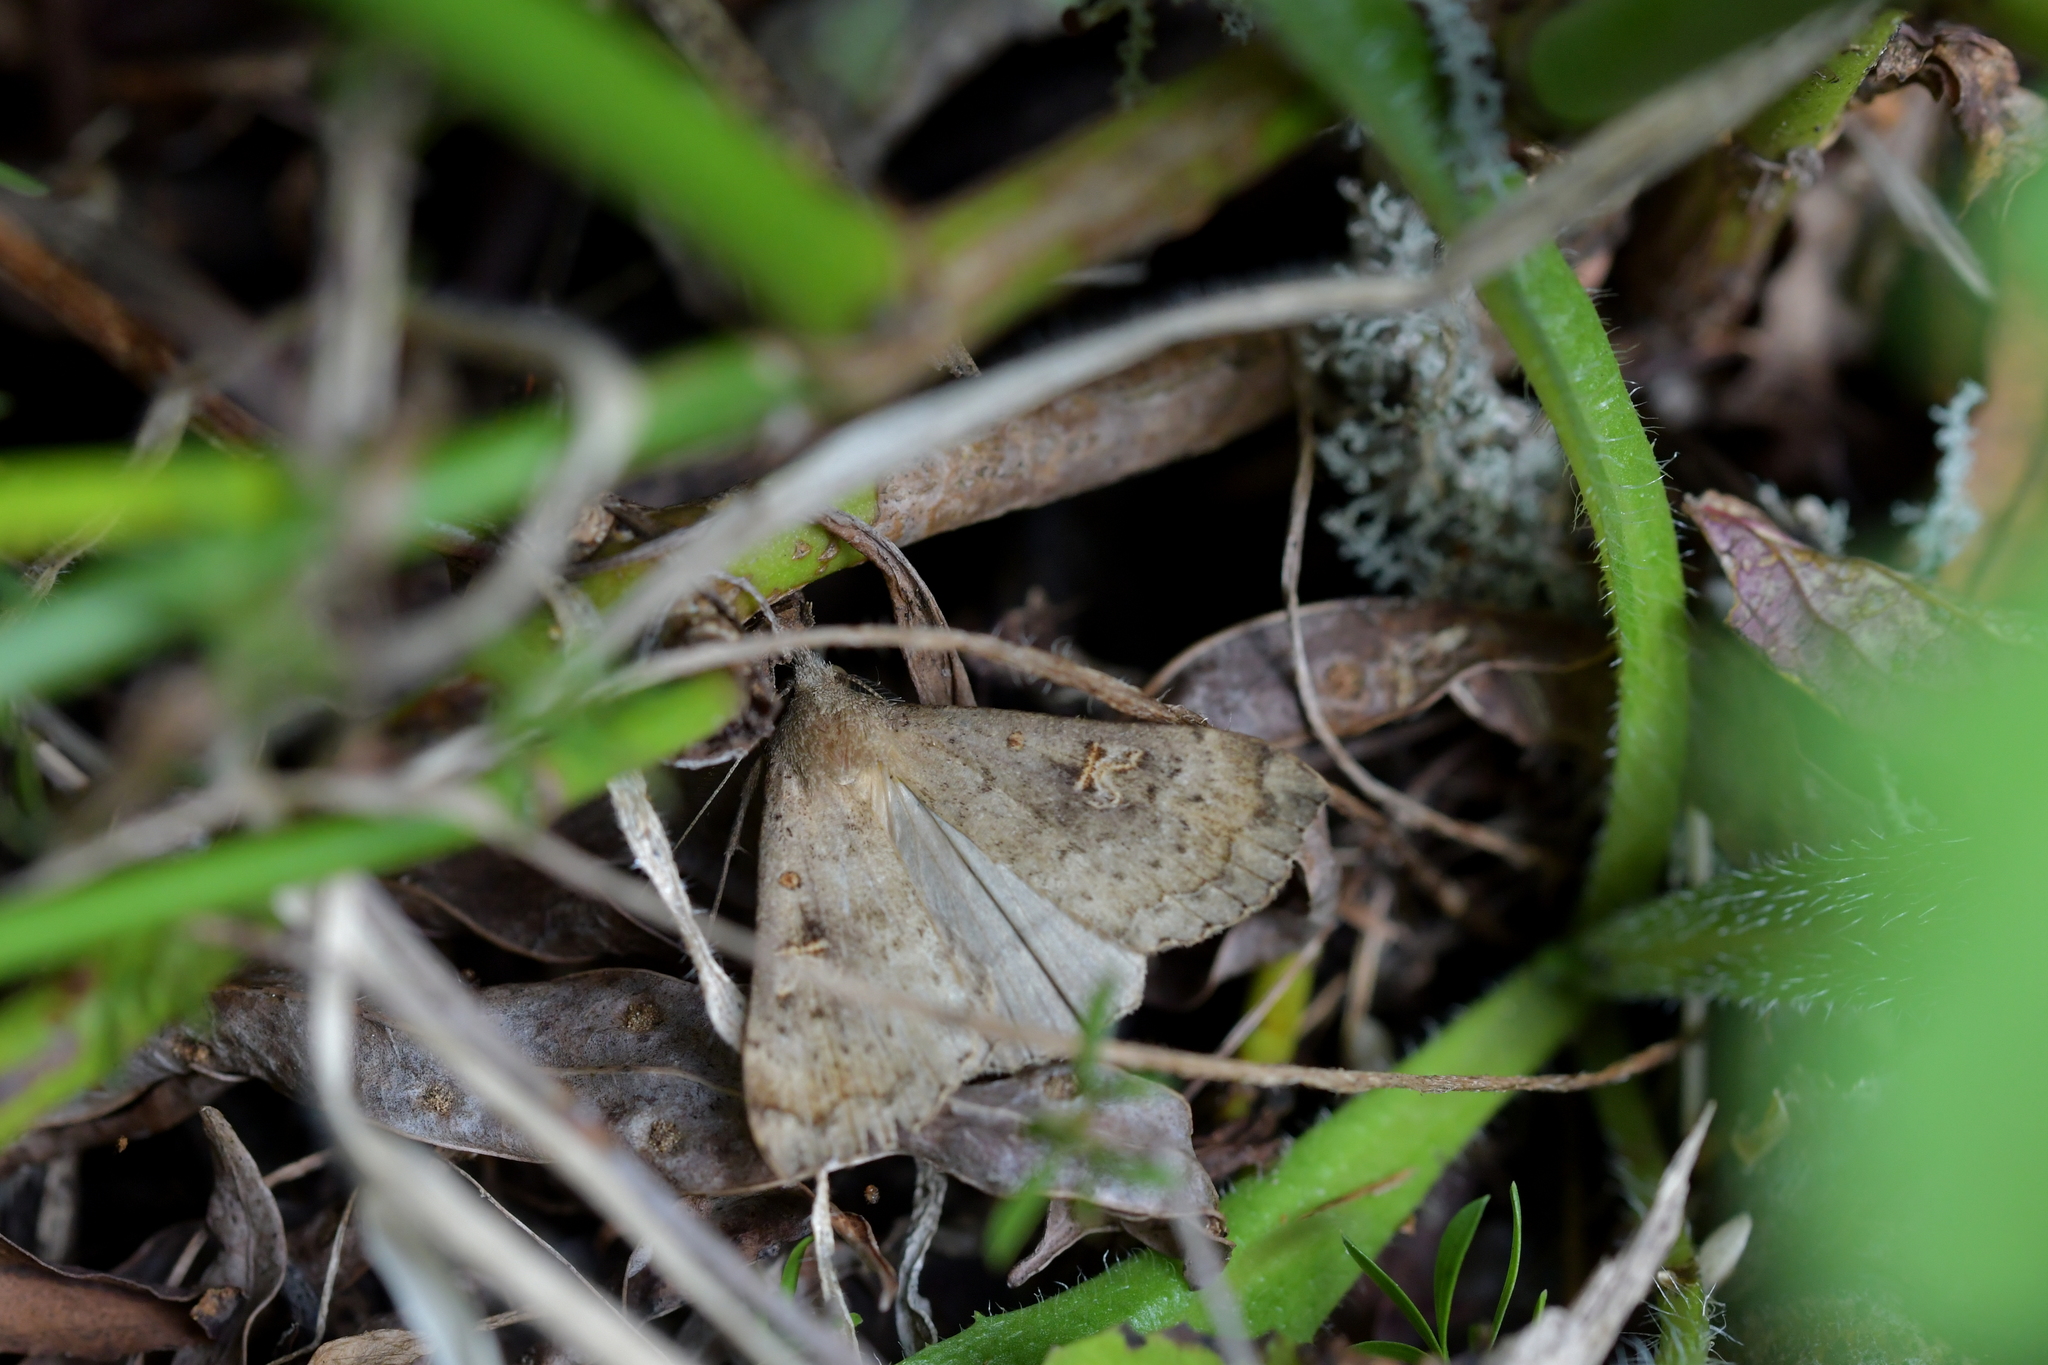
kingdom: Animalia
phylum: Arthropoda
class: Insecta
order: Lepidoptera
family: Erebidae
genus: Rhapsa
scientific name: Rhapsa scotosialis
